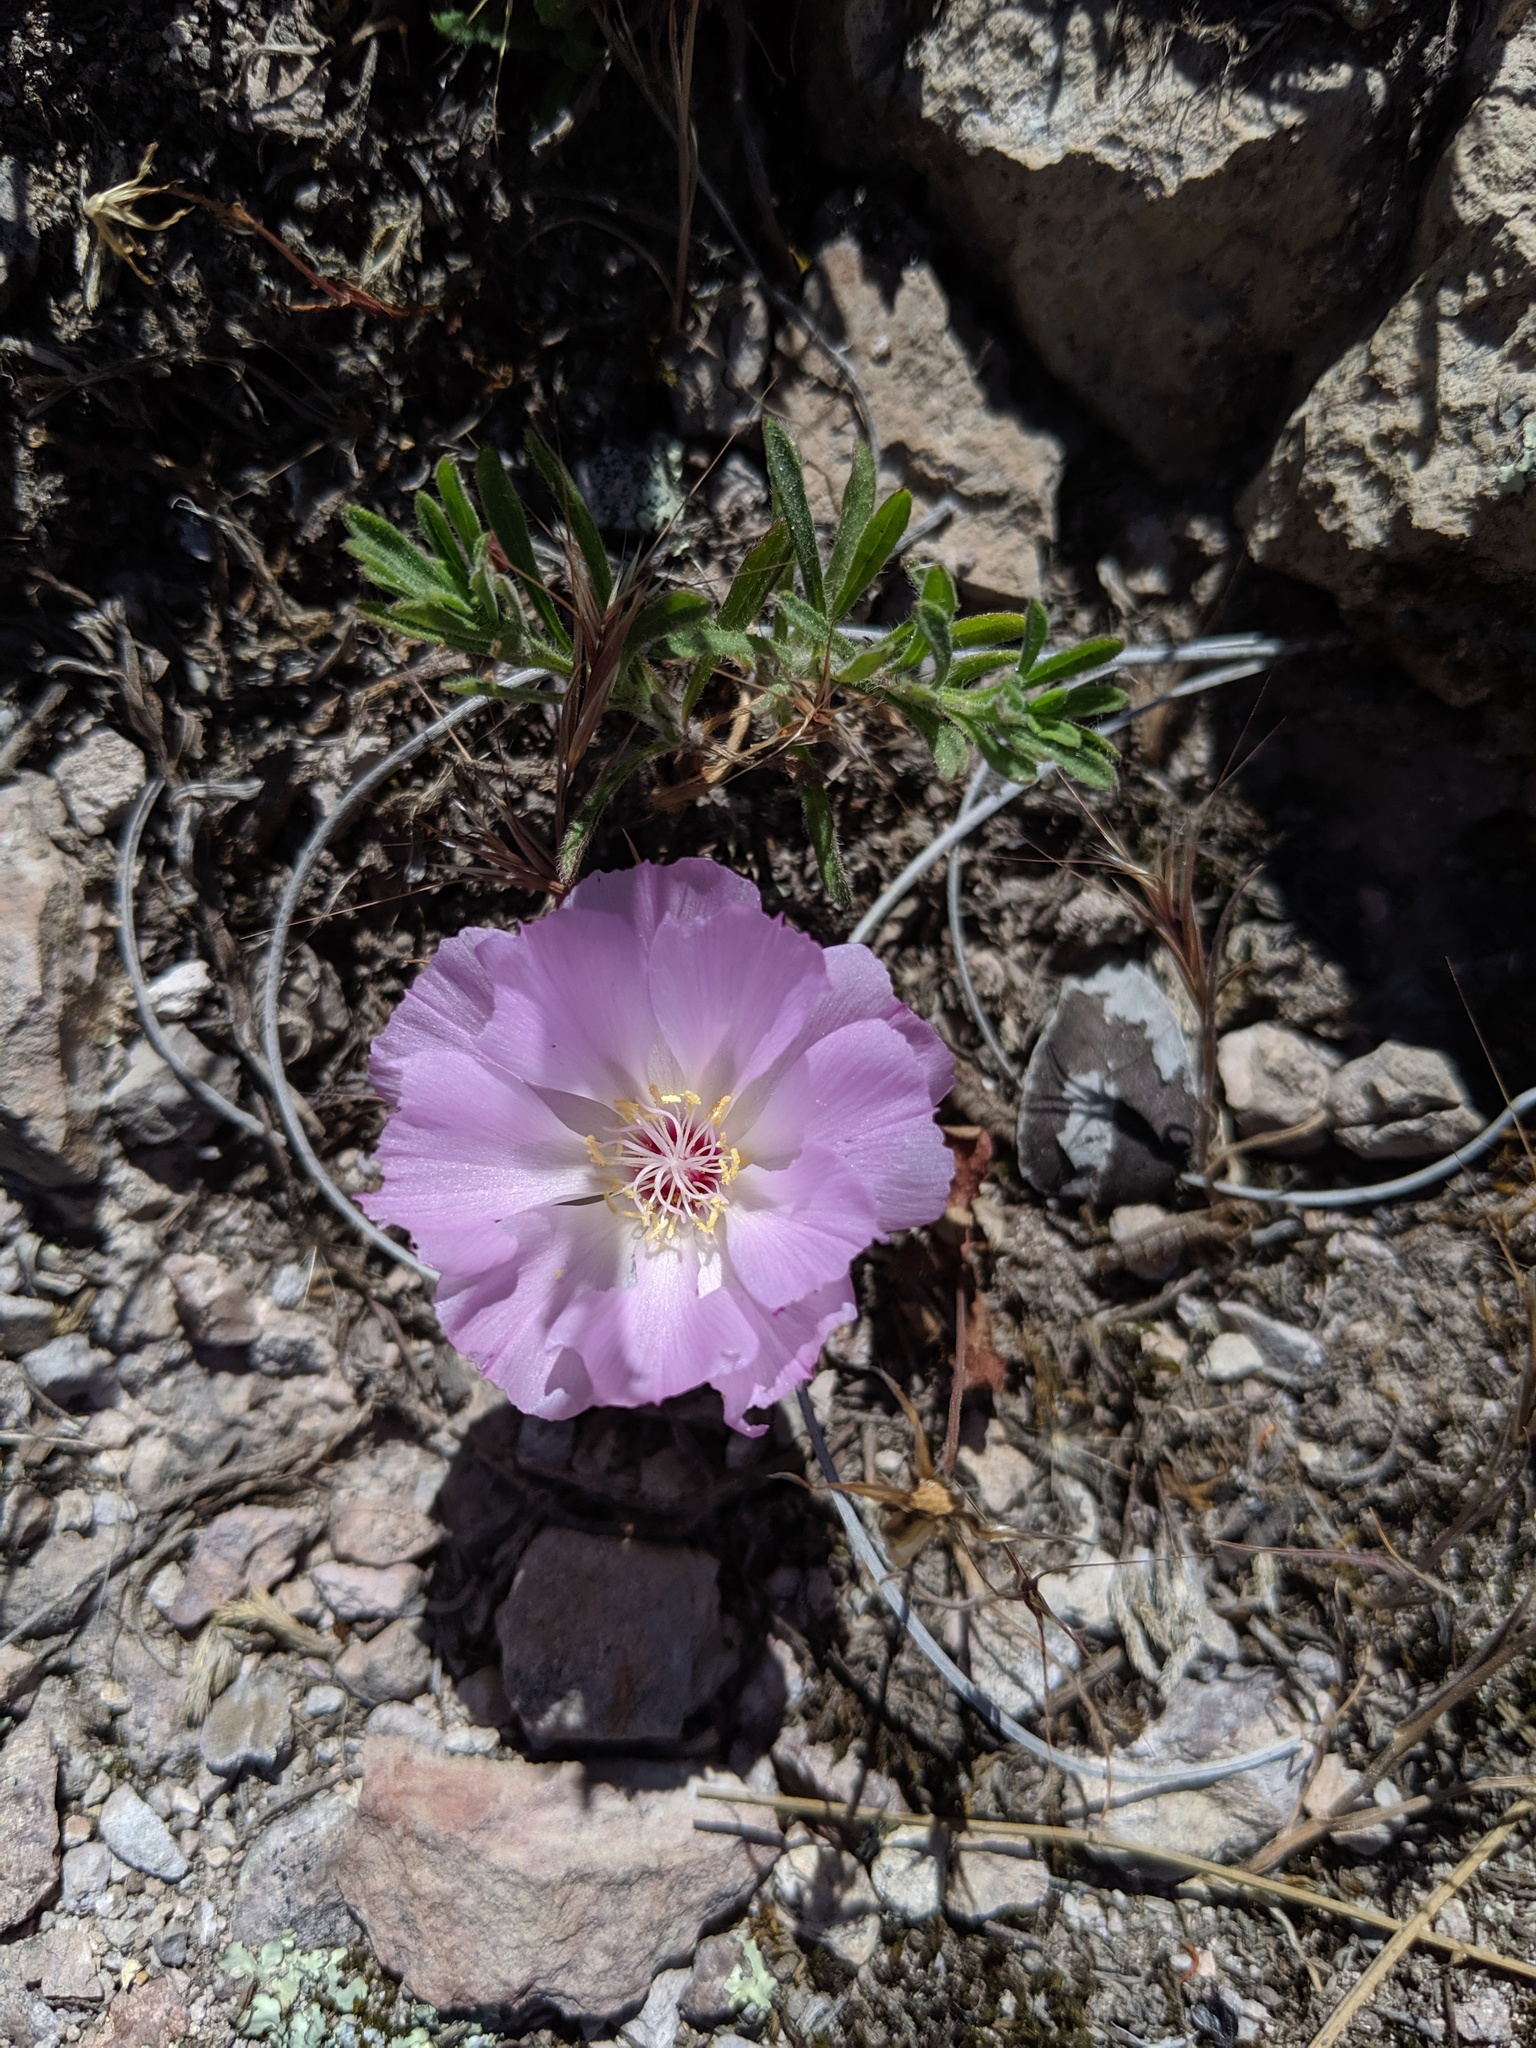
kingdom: Plantae
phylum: Tracheophyta
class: Magnoliopsida
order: Caryophyllales
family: Montiaceae
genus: Lewisia
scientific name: Lewisia rediviva
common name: Bitter-root
